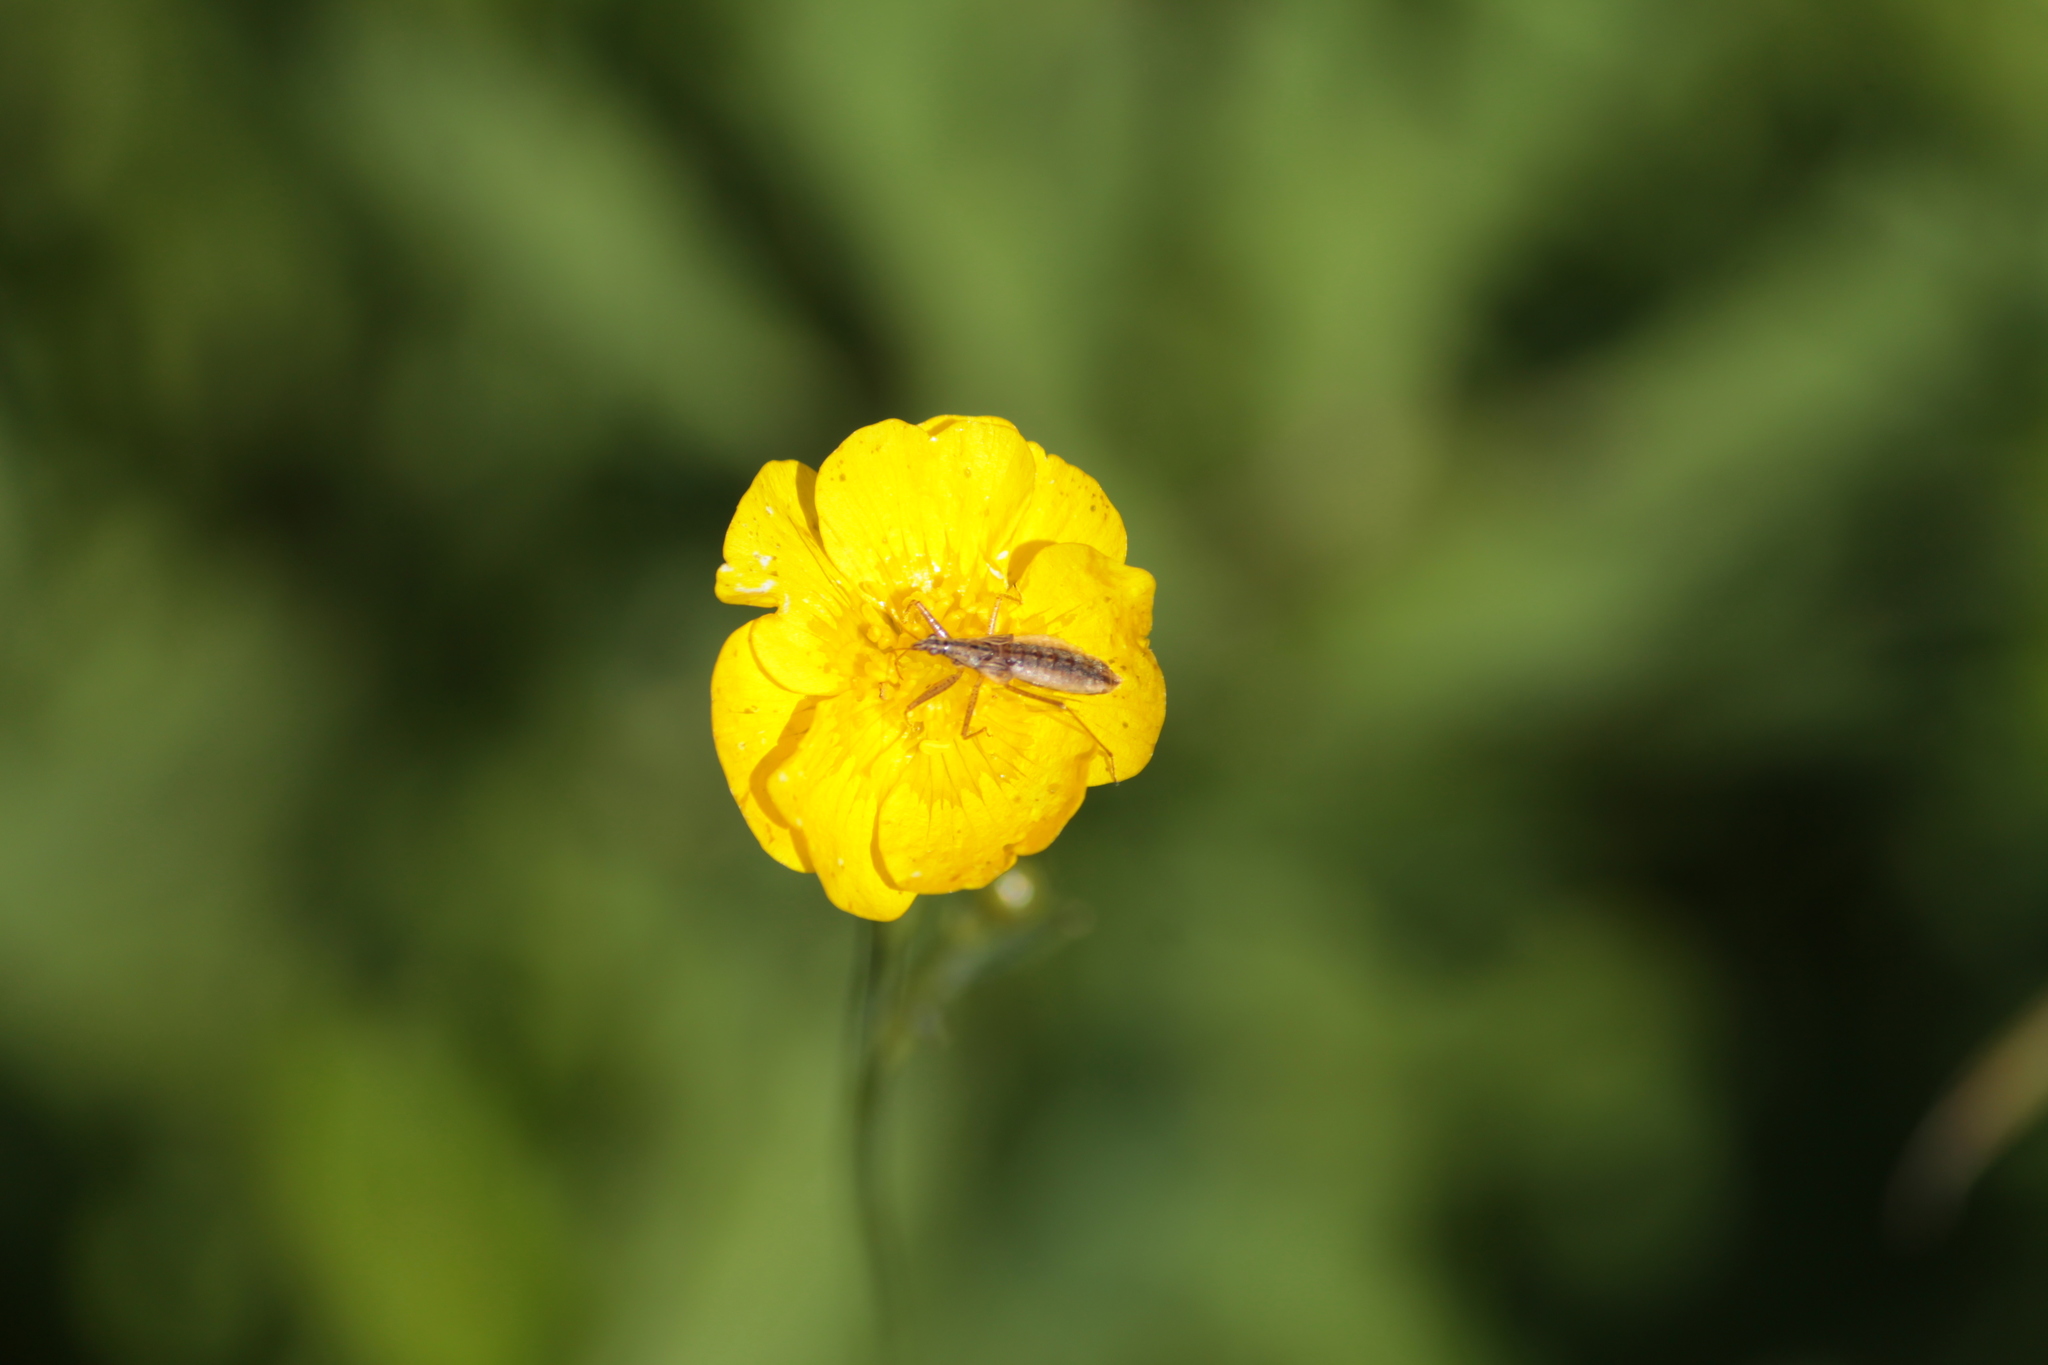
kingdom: Animalia
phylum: Arthropoda
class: Insecta
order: Hemiptera
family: Nabidae
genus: Nabis
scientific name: Nabis limbatus
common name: Marsh damselbug
